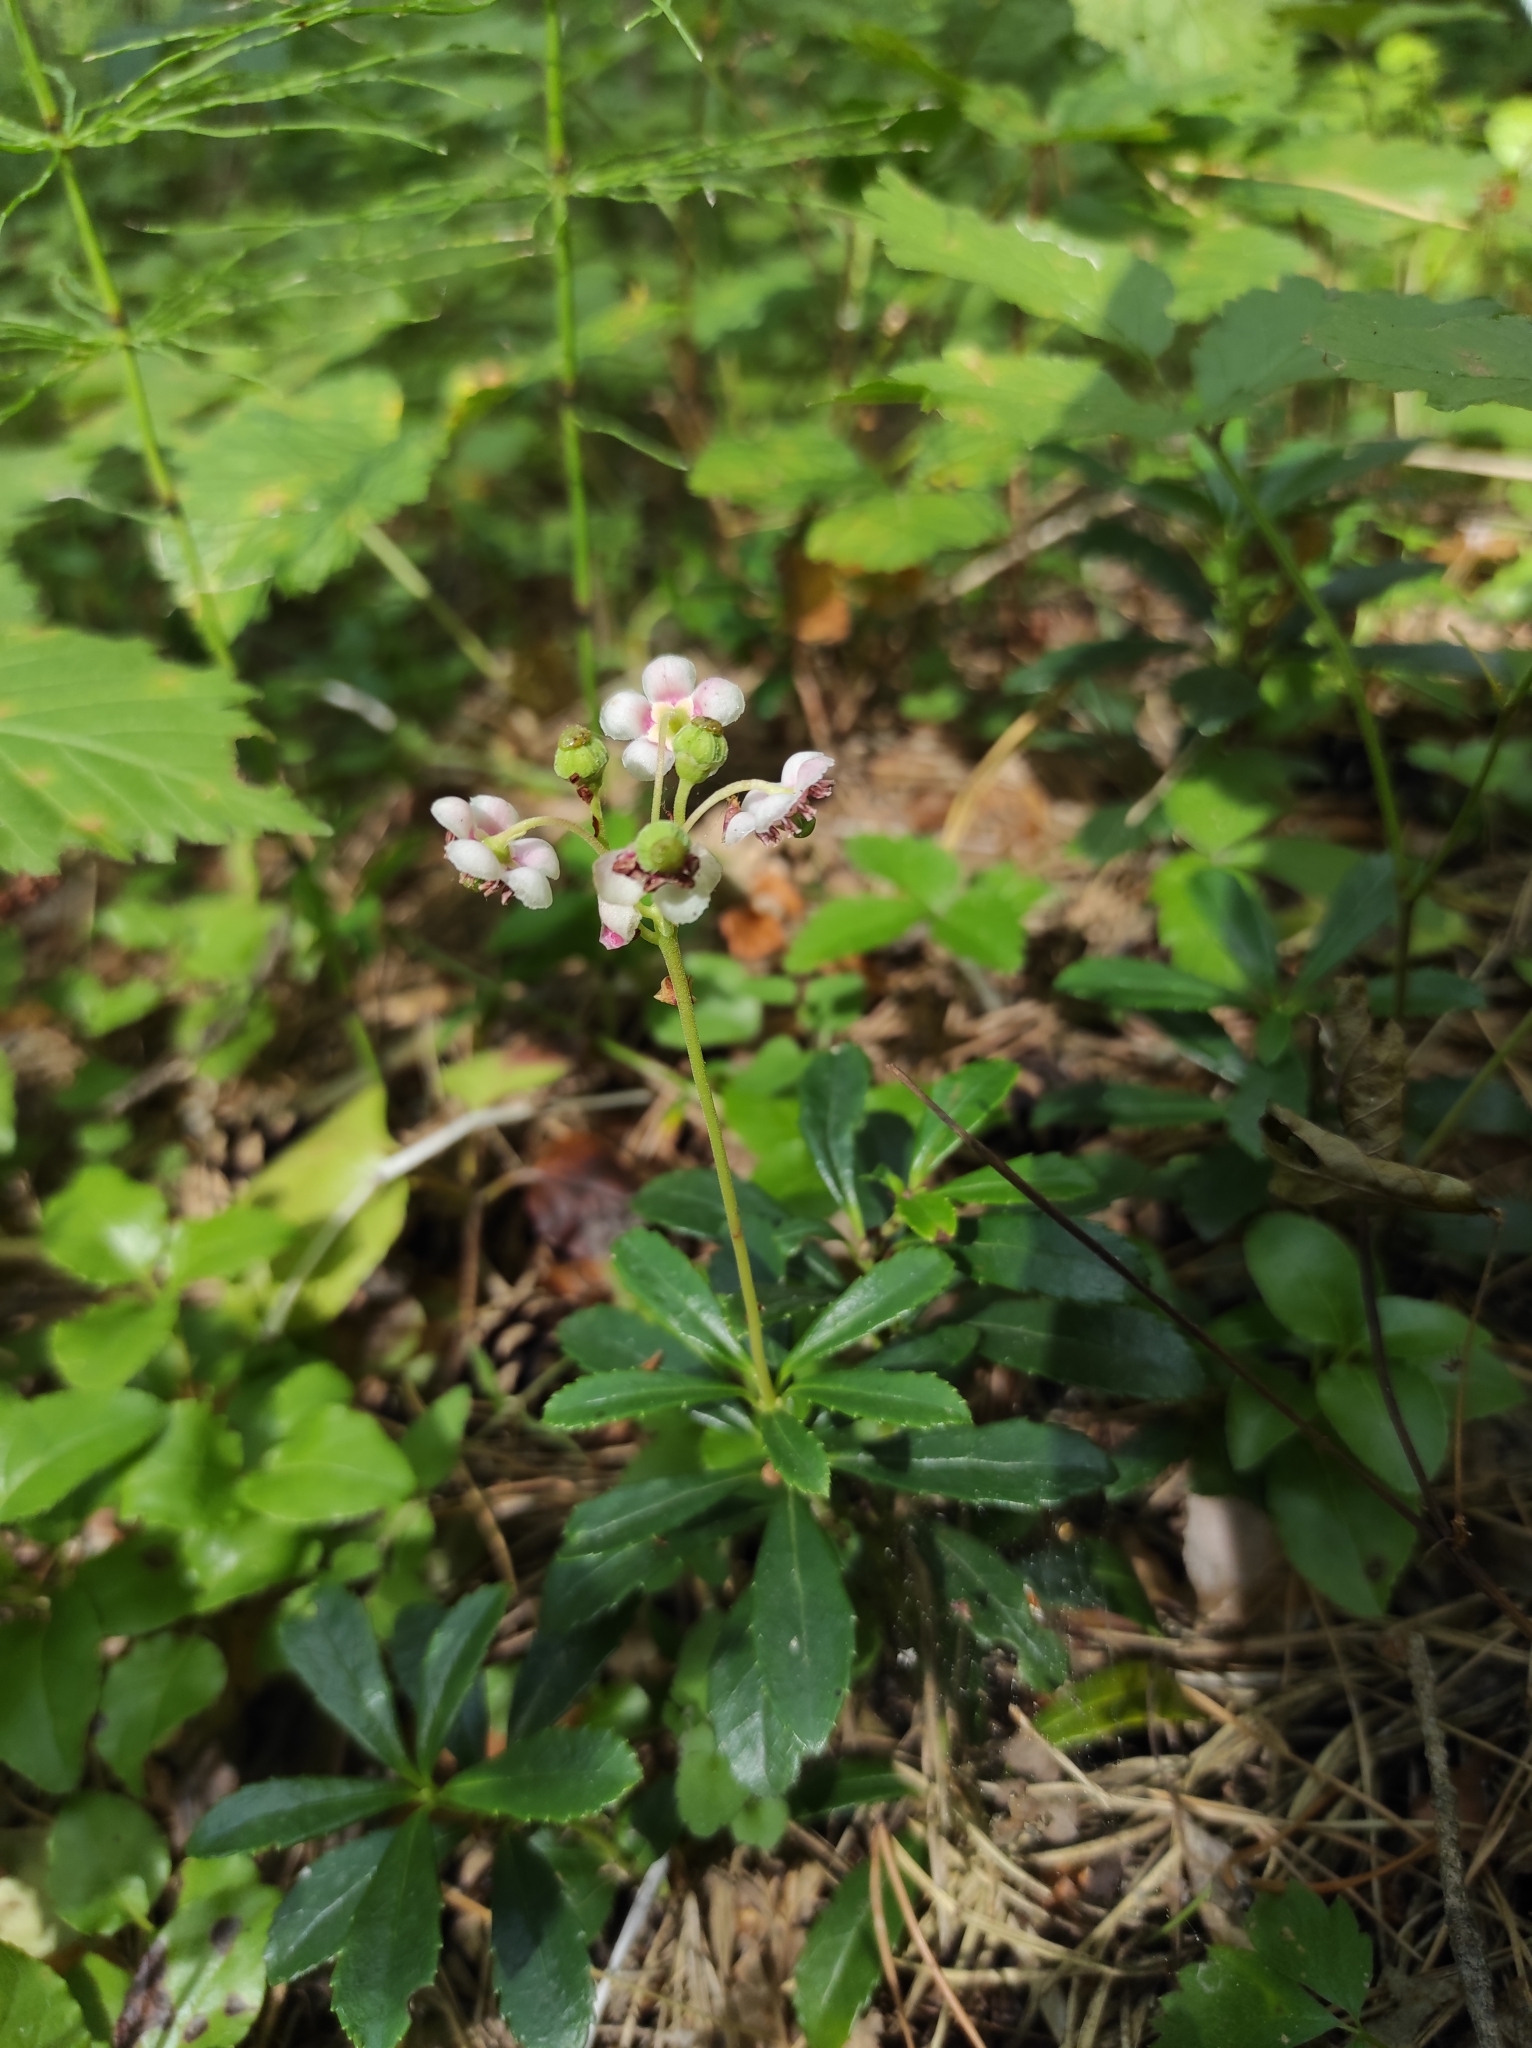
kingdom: Plantae
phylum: Tracheophyta
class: Magnoliopsida
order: Ericales
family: Ericaceae
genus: Chimaphila
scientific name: Chimaphila umbellata
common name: Pipsissewa
